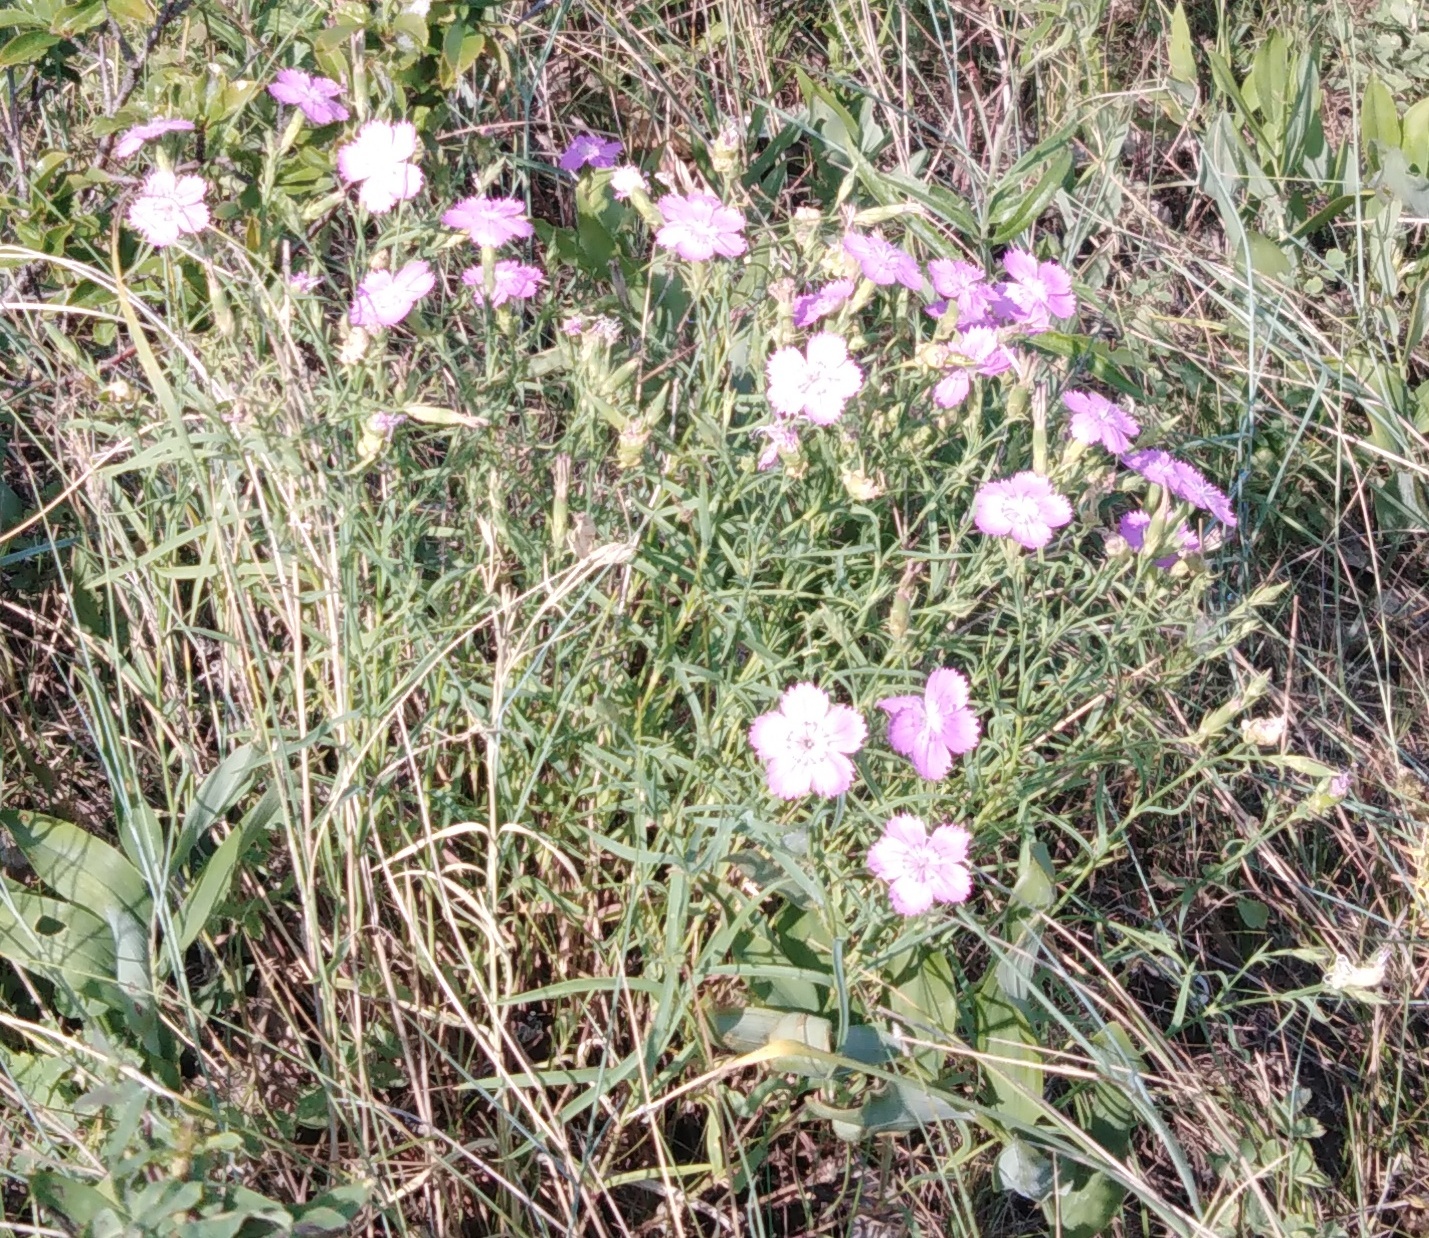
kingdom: Plantae
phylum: Tracheophyta
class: Magnoliopsida
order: Caryophyllales
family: Caryophyllaceae
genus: Dianthus
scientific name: Dianthus chinensis
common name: Rainbow pink
